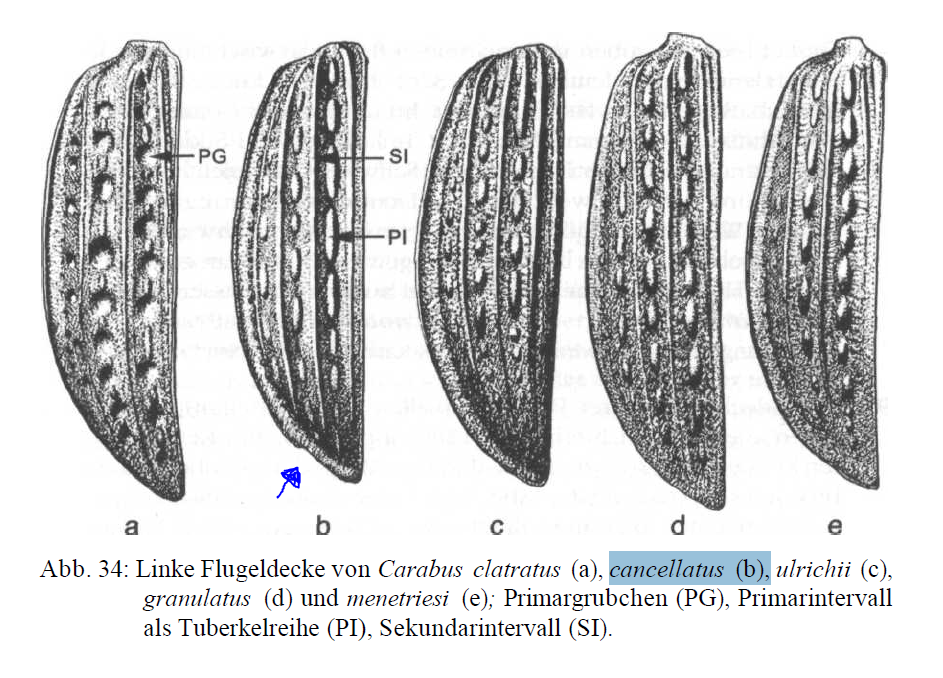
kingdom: Animalia
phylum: Arthropoda
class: Insecta
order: Coleoptera
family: Carabidae
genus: Carabus
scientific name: Carabus granulatus
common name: Granulate ground beetle
